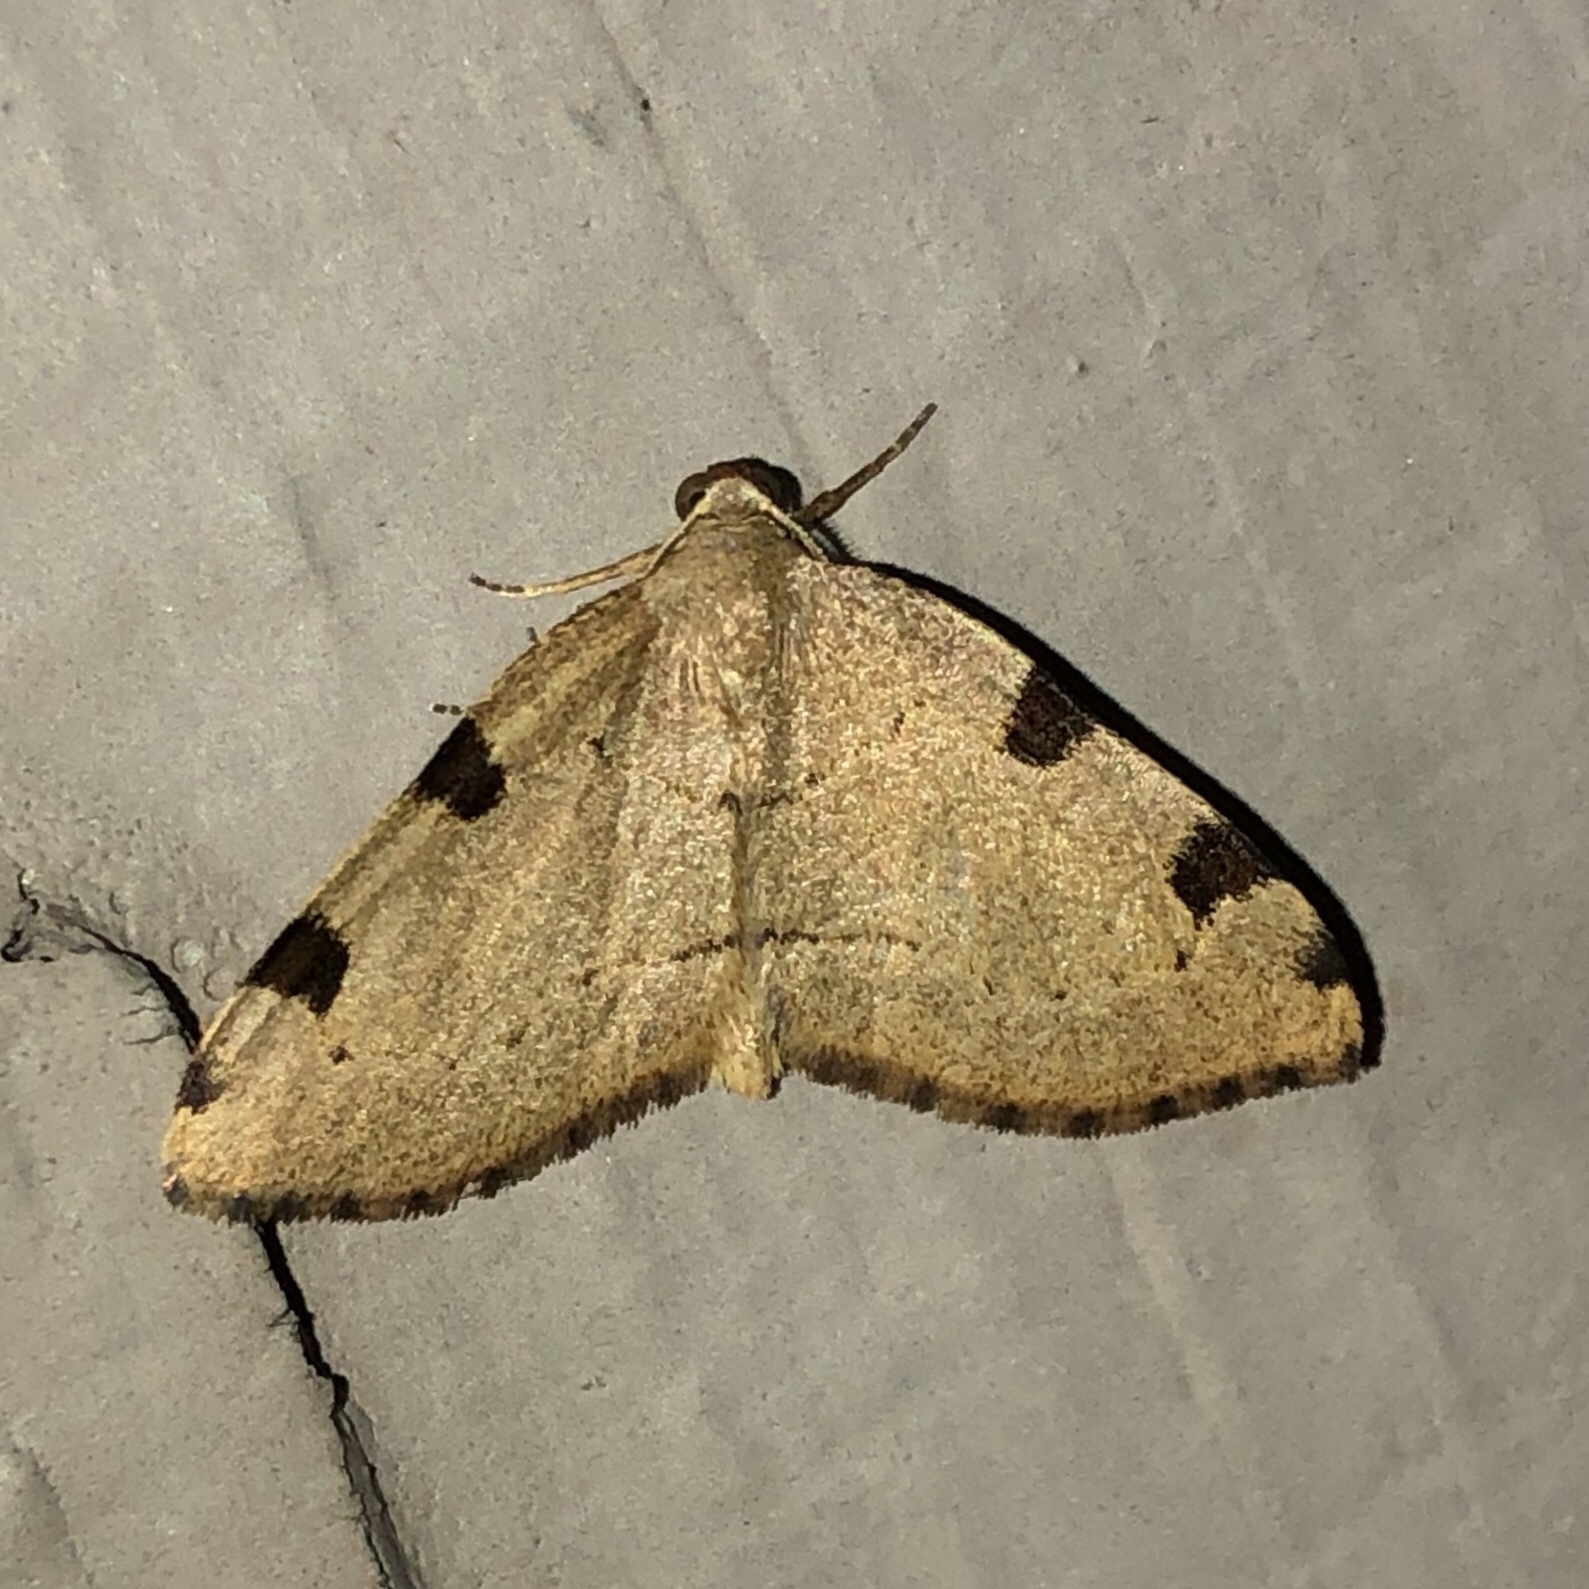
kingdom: Animalia
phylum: Arthropoda
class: Insecta
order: Lepidoptera
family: Geometridae
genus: Heterophleps
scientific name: Heterophleps triguttaria
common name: Three-spotted fillip
